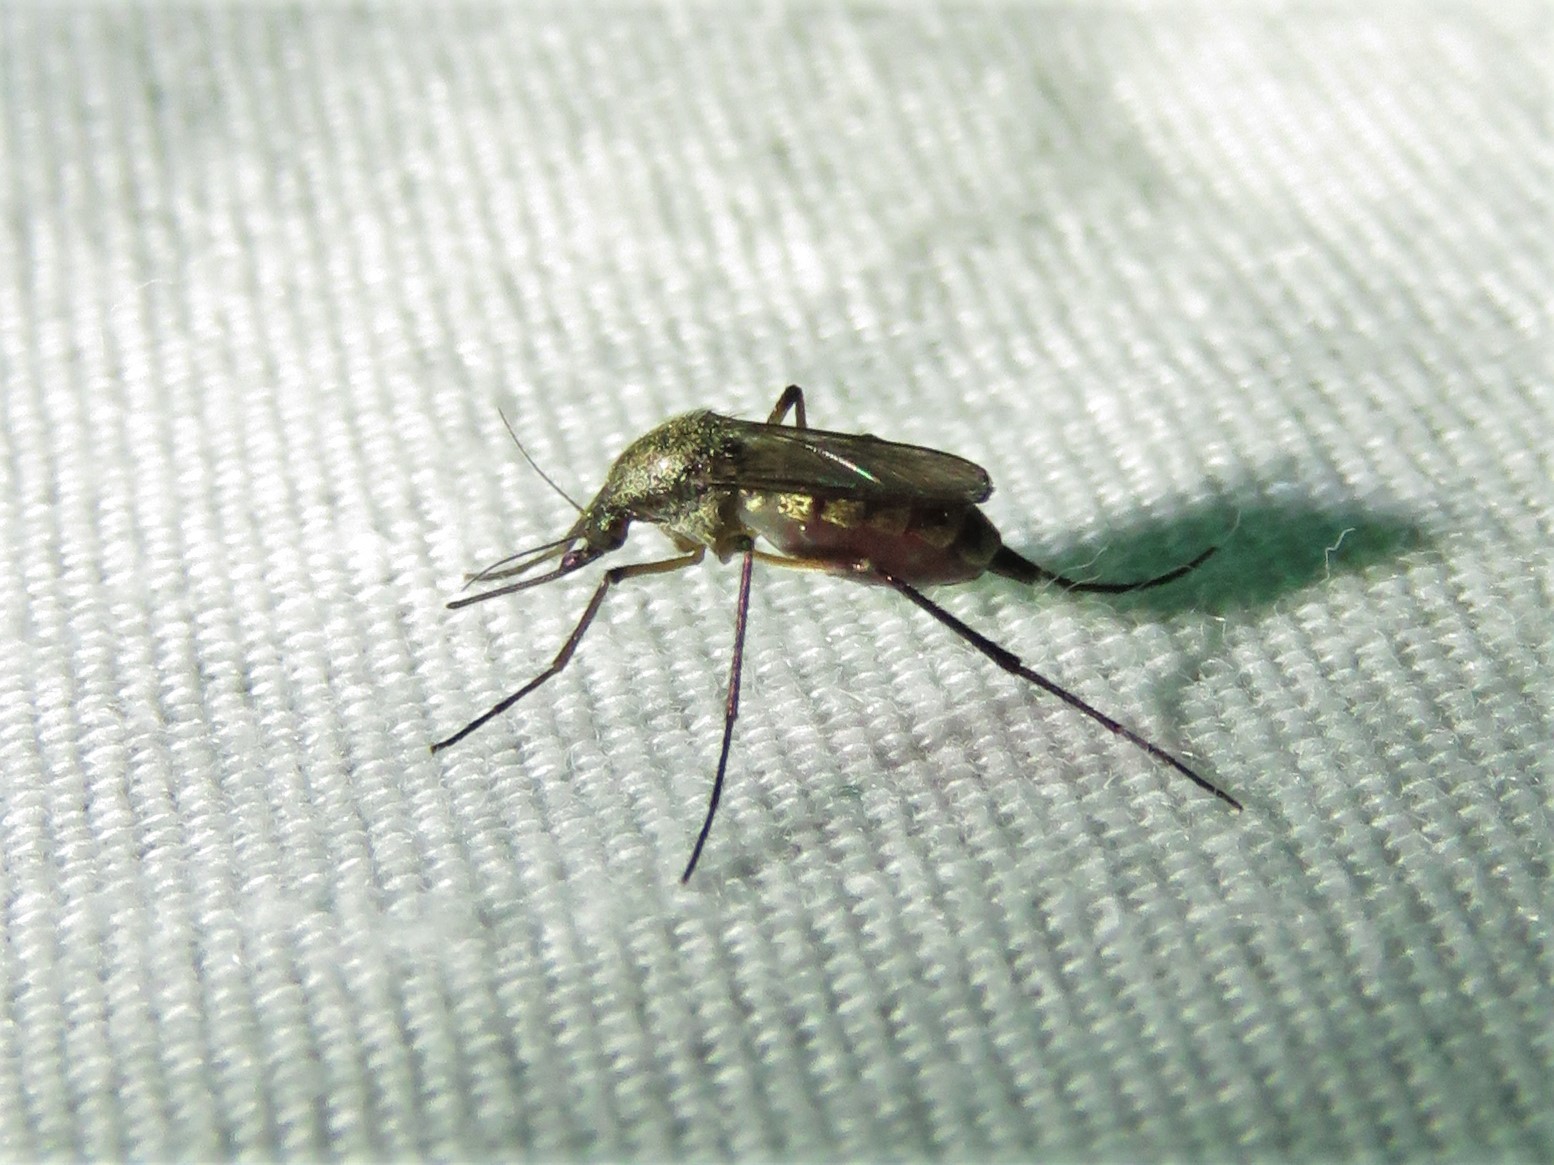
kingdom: Animalia
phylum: Arthropoda
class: Insecta
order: Diptera
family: Culicidae
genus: Psorophora
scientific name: Psorophora cyanescens
